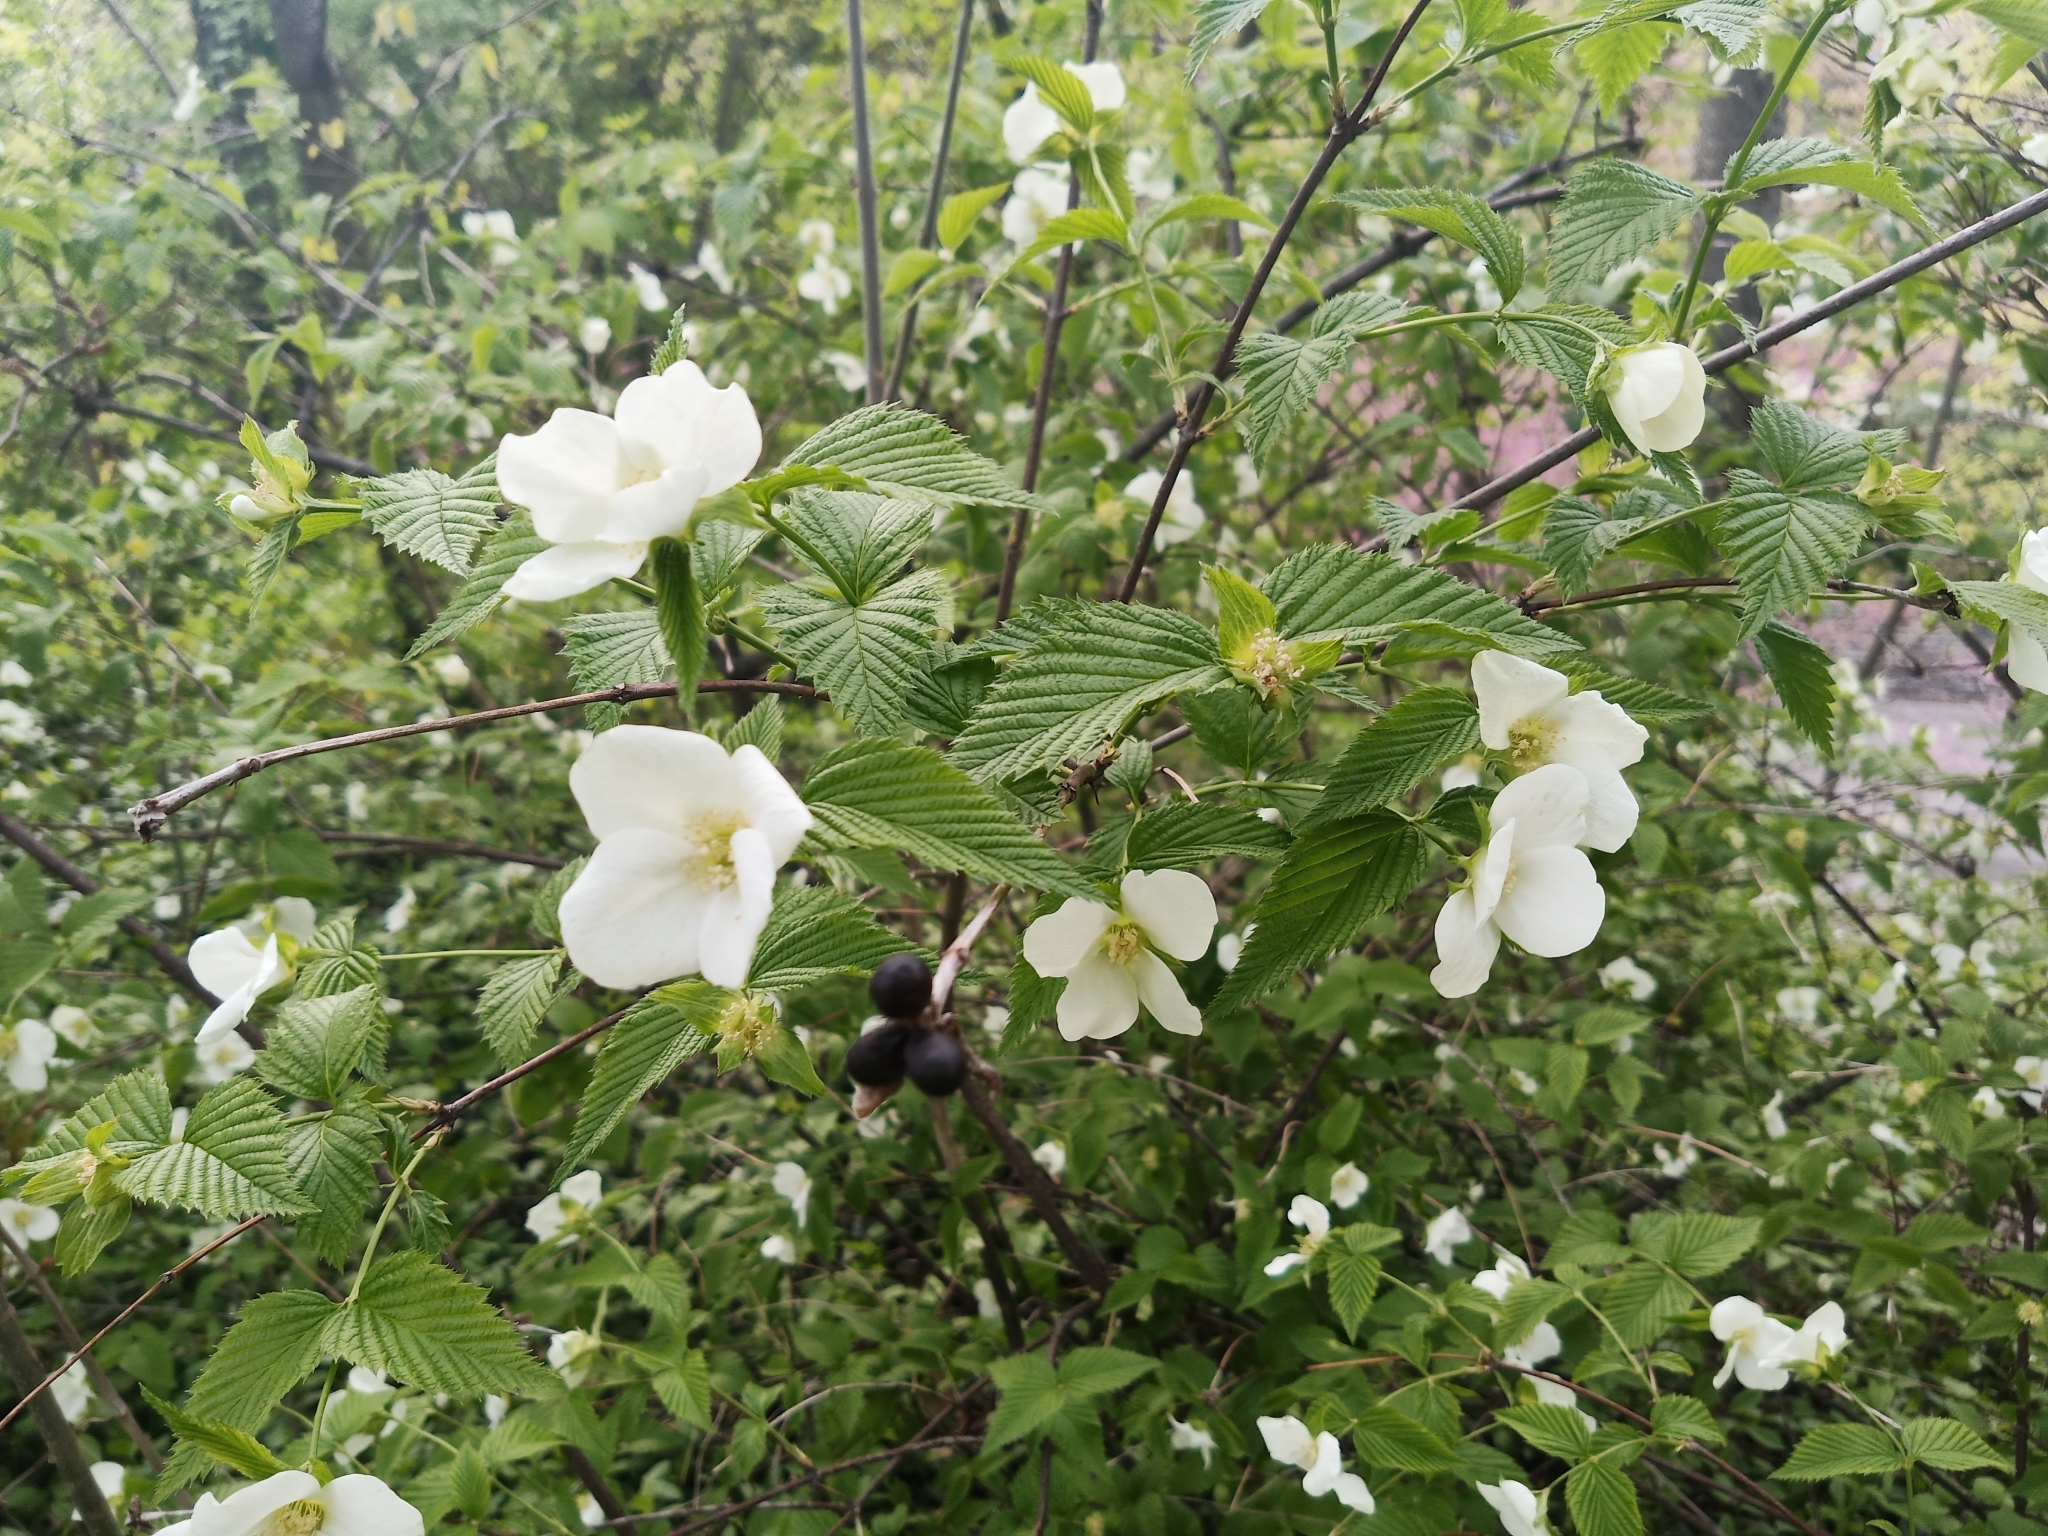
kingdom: Plantae
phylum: Tracheophyta
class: Magnoliopsida
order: Rosales
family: Rosaceae
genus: Rhodotypos
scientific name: Rhodotypos scandens
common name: Jetbead
